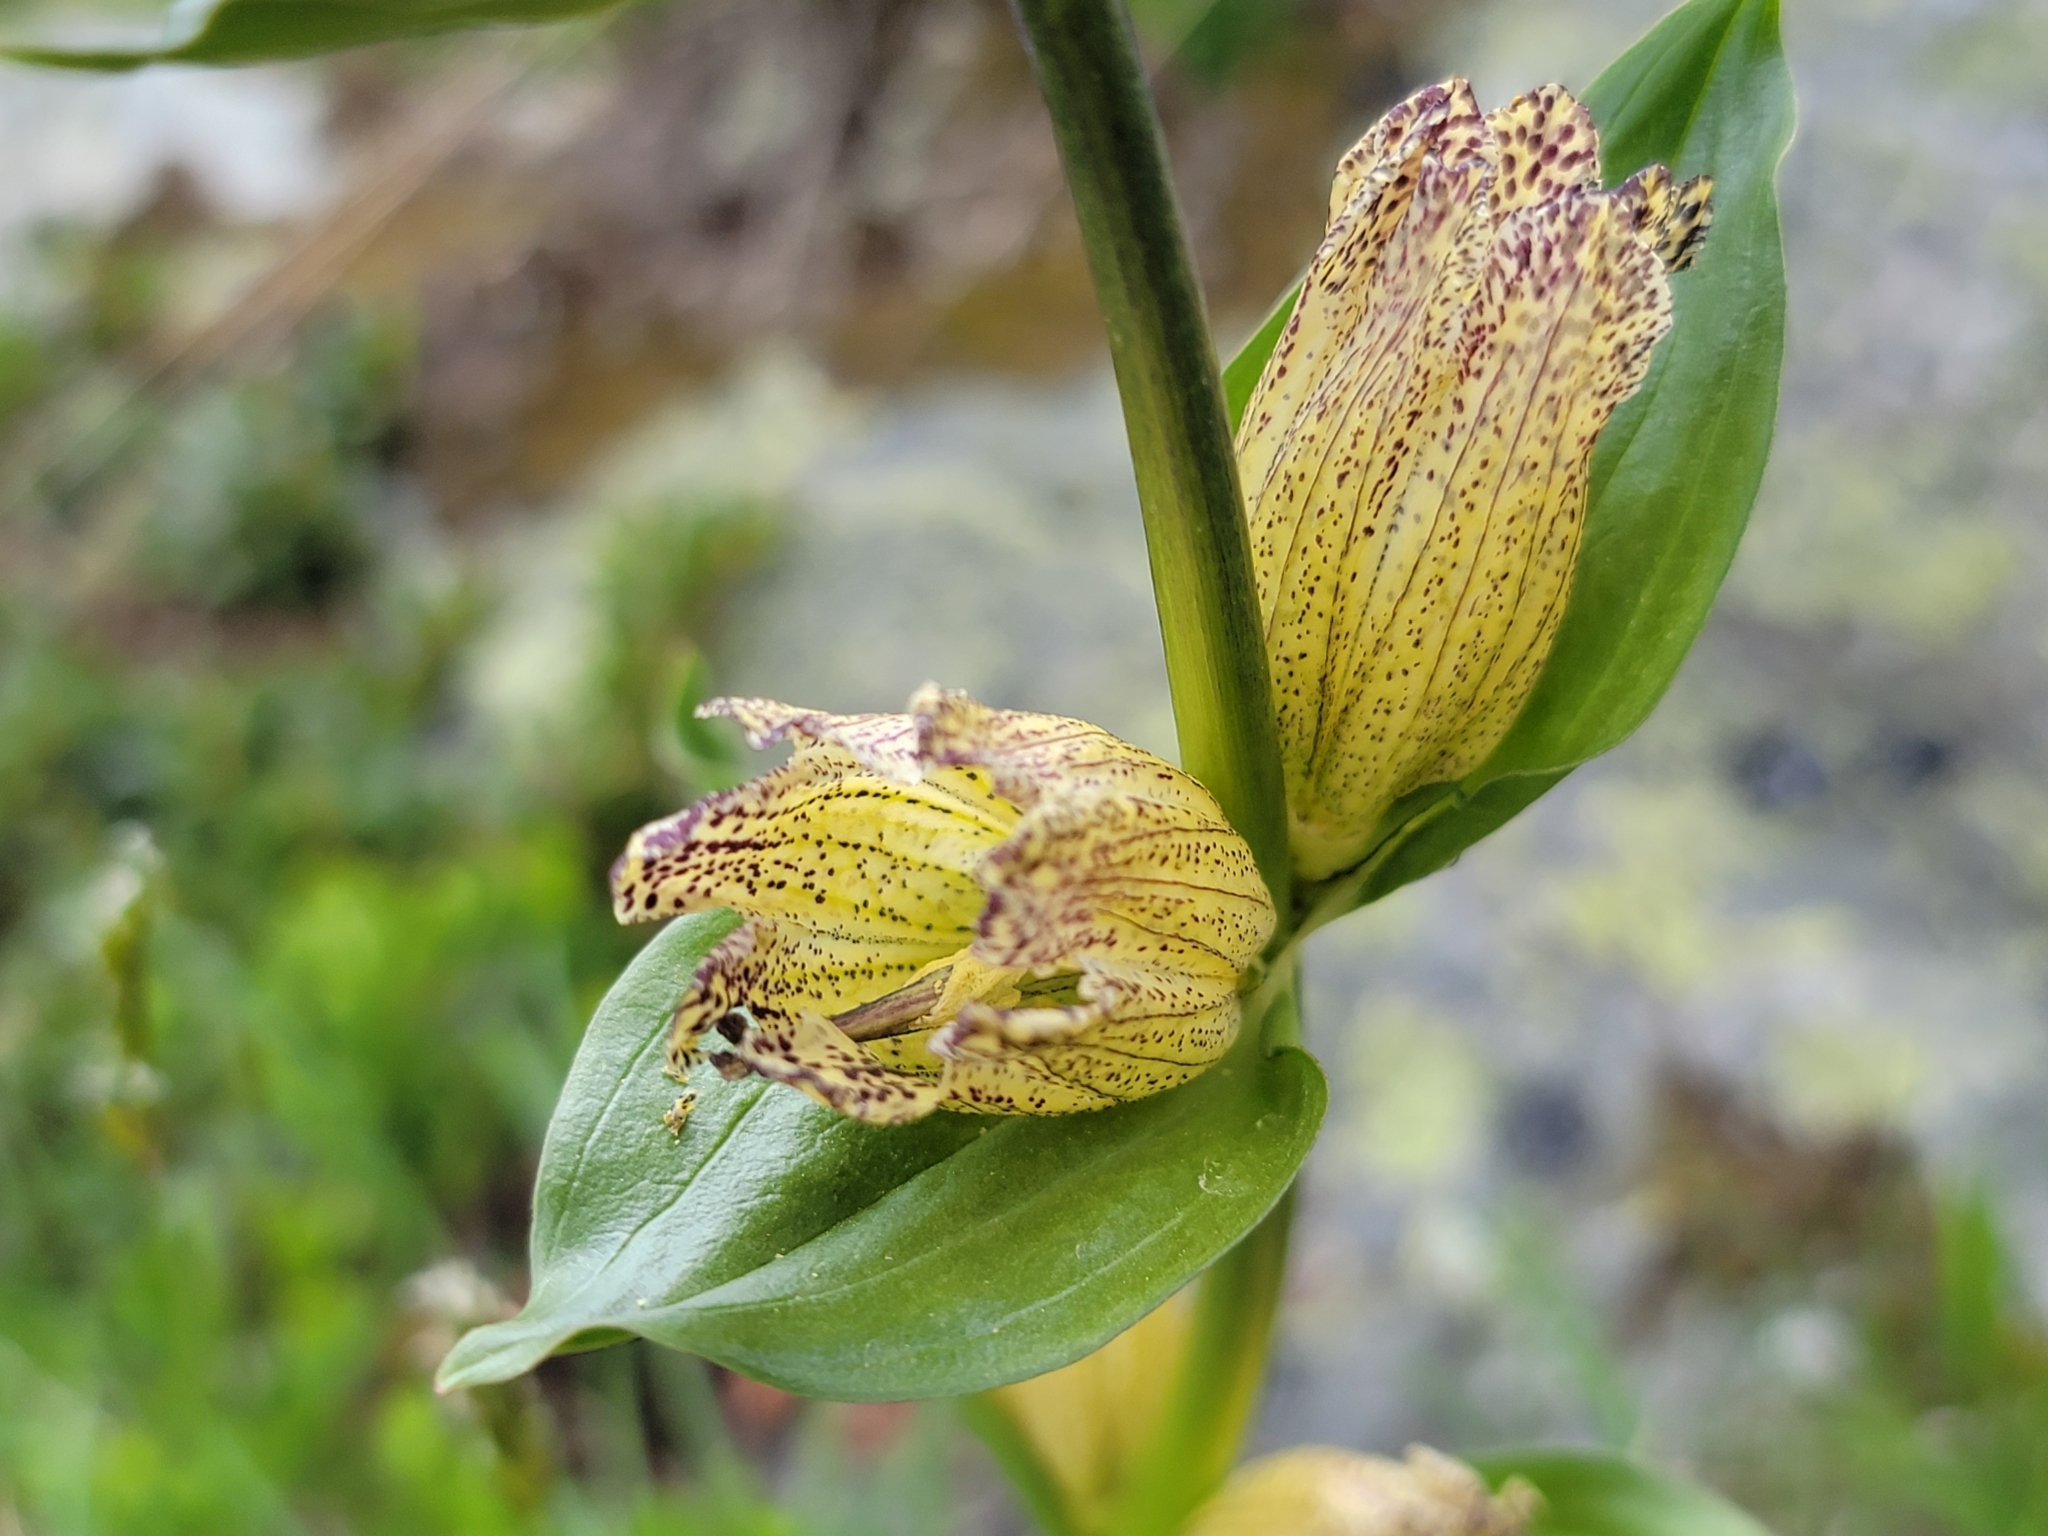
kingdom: Plantae
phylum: Tracheophyta
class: Magnoliopsida
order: Gentianales
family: Gentianaceae
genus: Gentiana
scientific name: Gentiana punctata
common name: Spotted gentian
